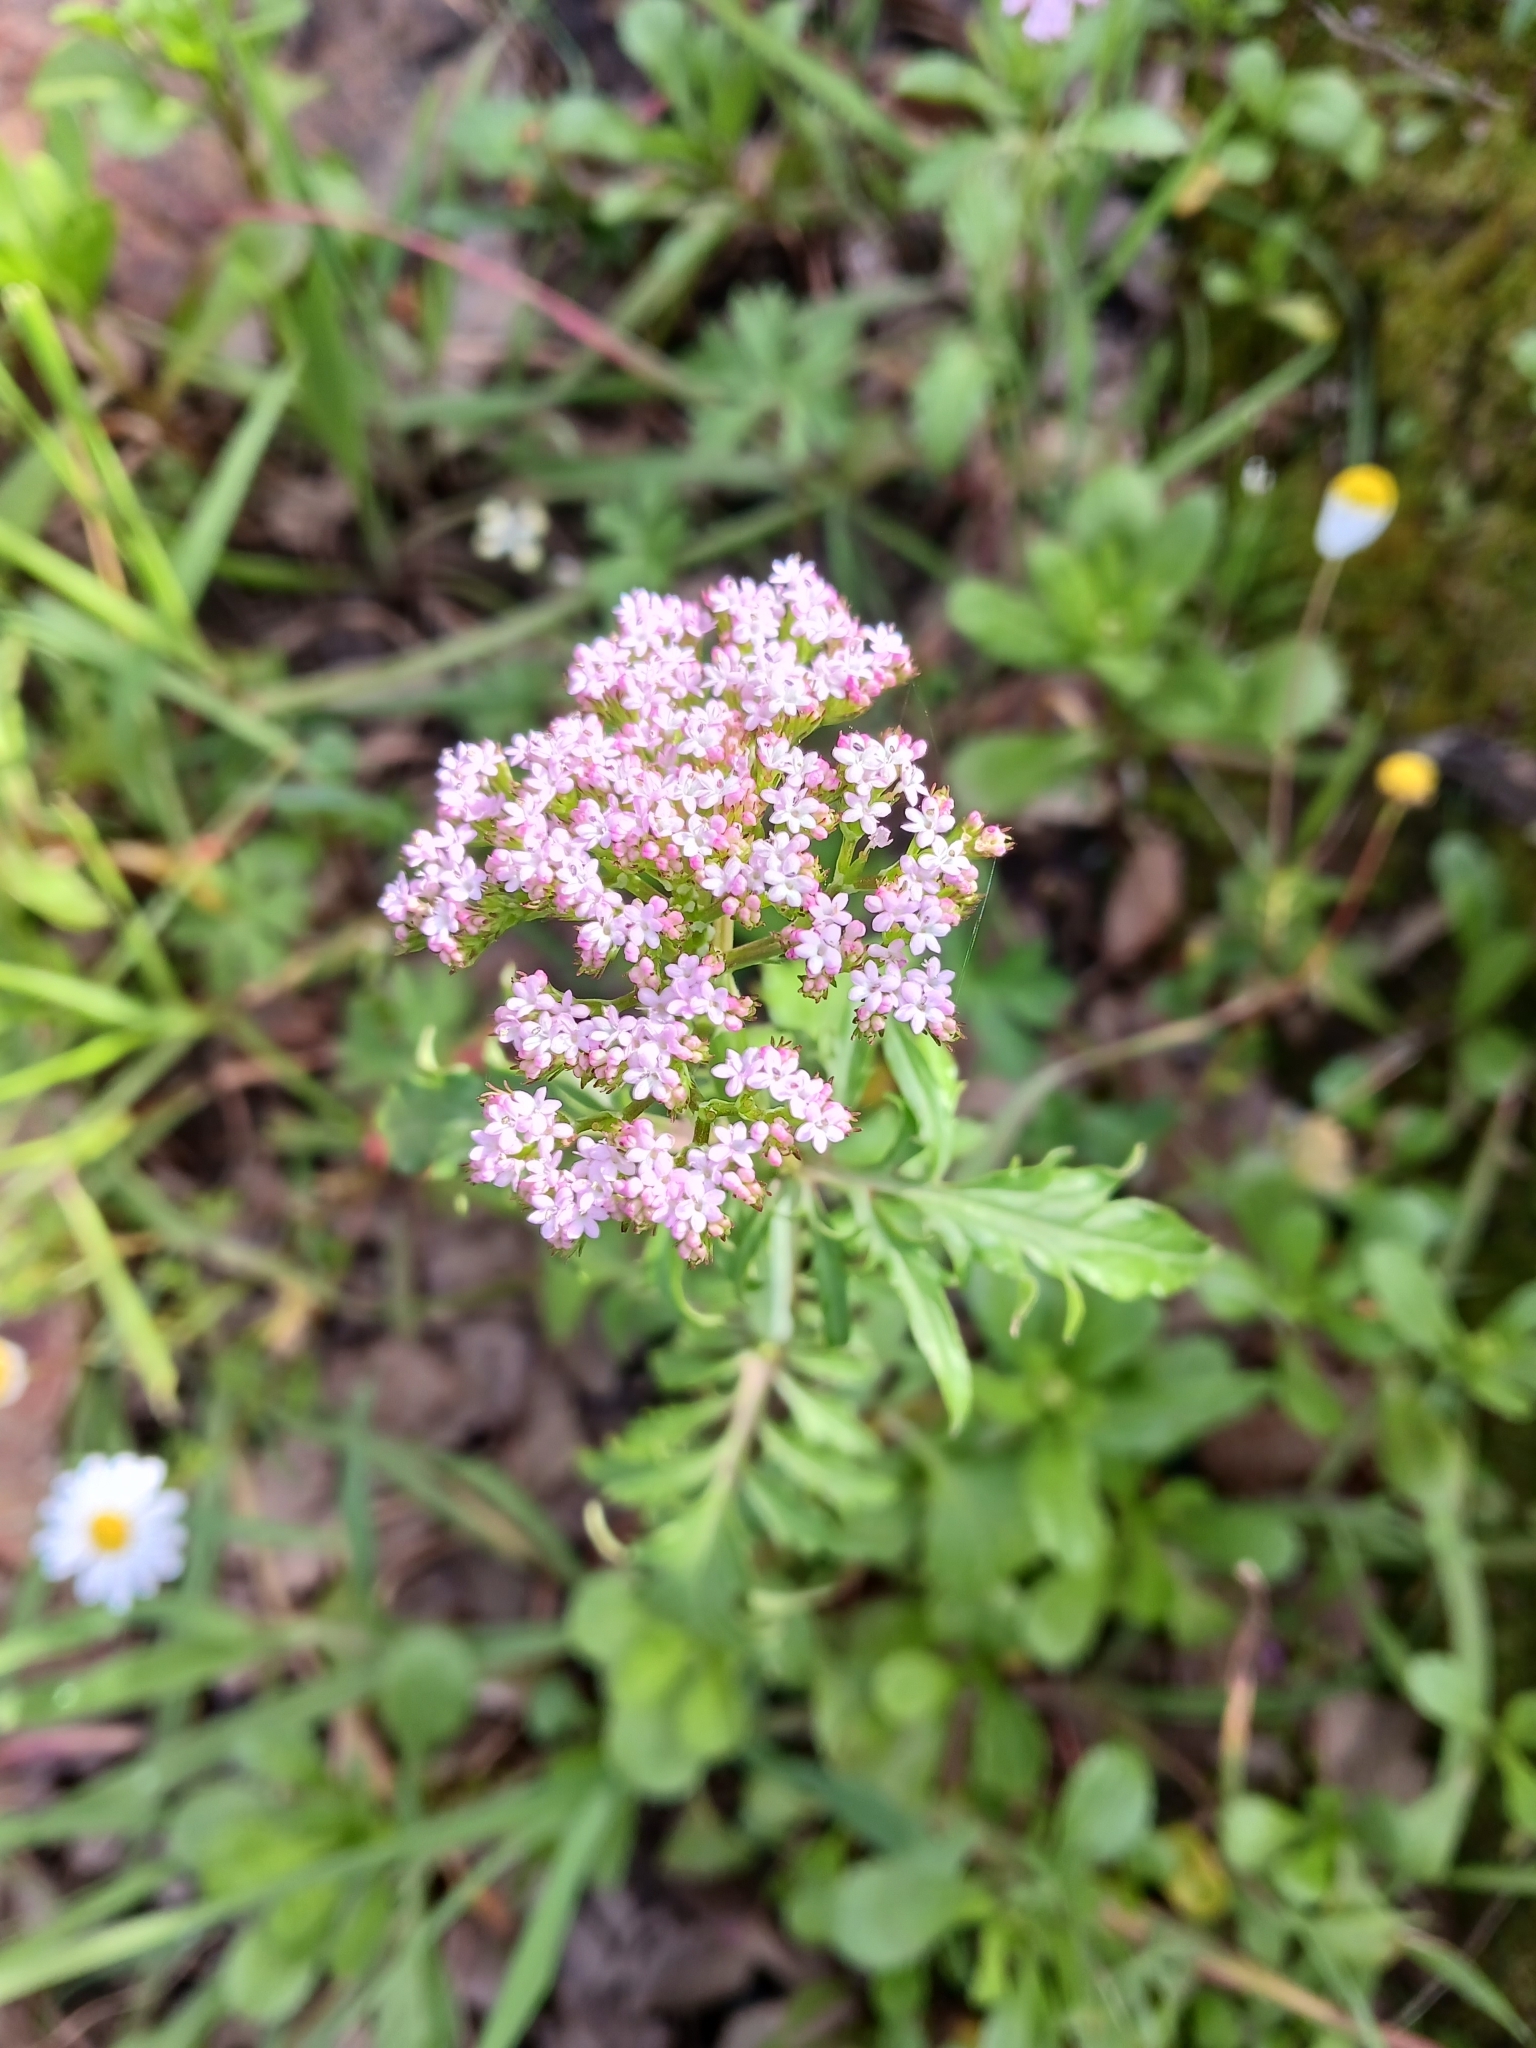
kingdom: Plantae
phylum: Tracheophyta
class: Magnoliopsida
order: Dipsacales
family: Caprifoliaceae
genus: Centranthus
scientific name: Centranthus calcitrapae
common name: Annual valerian
